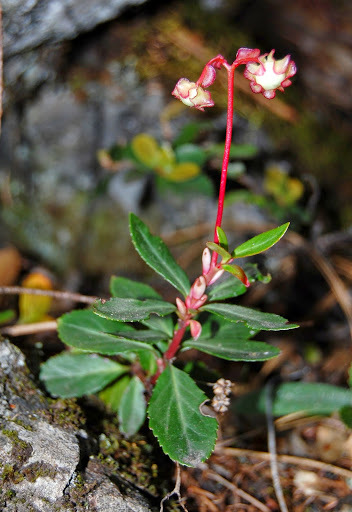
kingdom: Plantae
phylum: Tracheophyta
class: Magnoliopsida
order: Ericales
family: Ericaceae
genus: Chimaphila
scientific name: Chimaphila menziesii
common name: Menzies' pipsissewa
